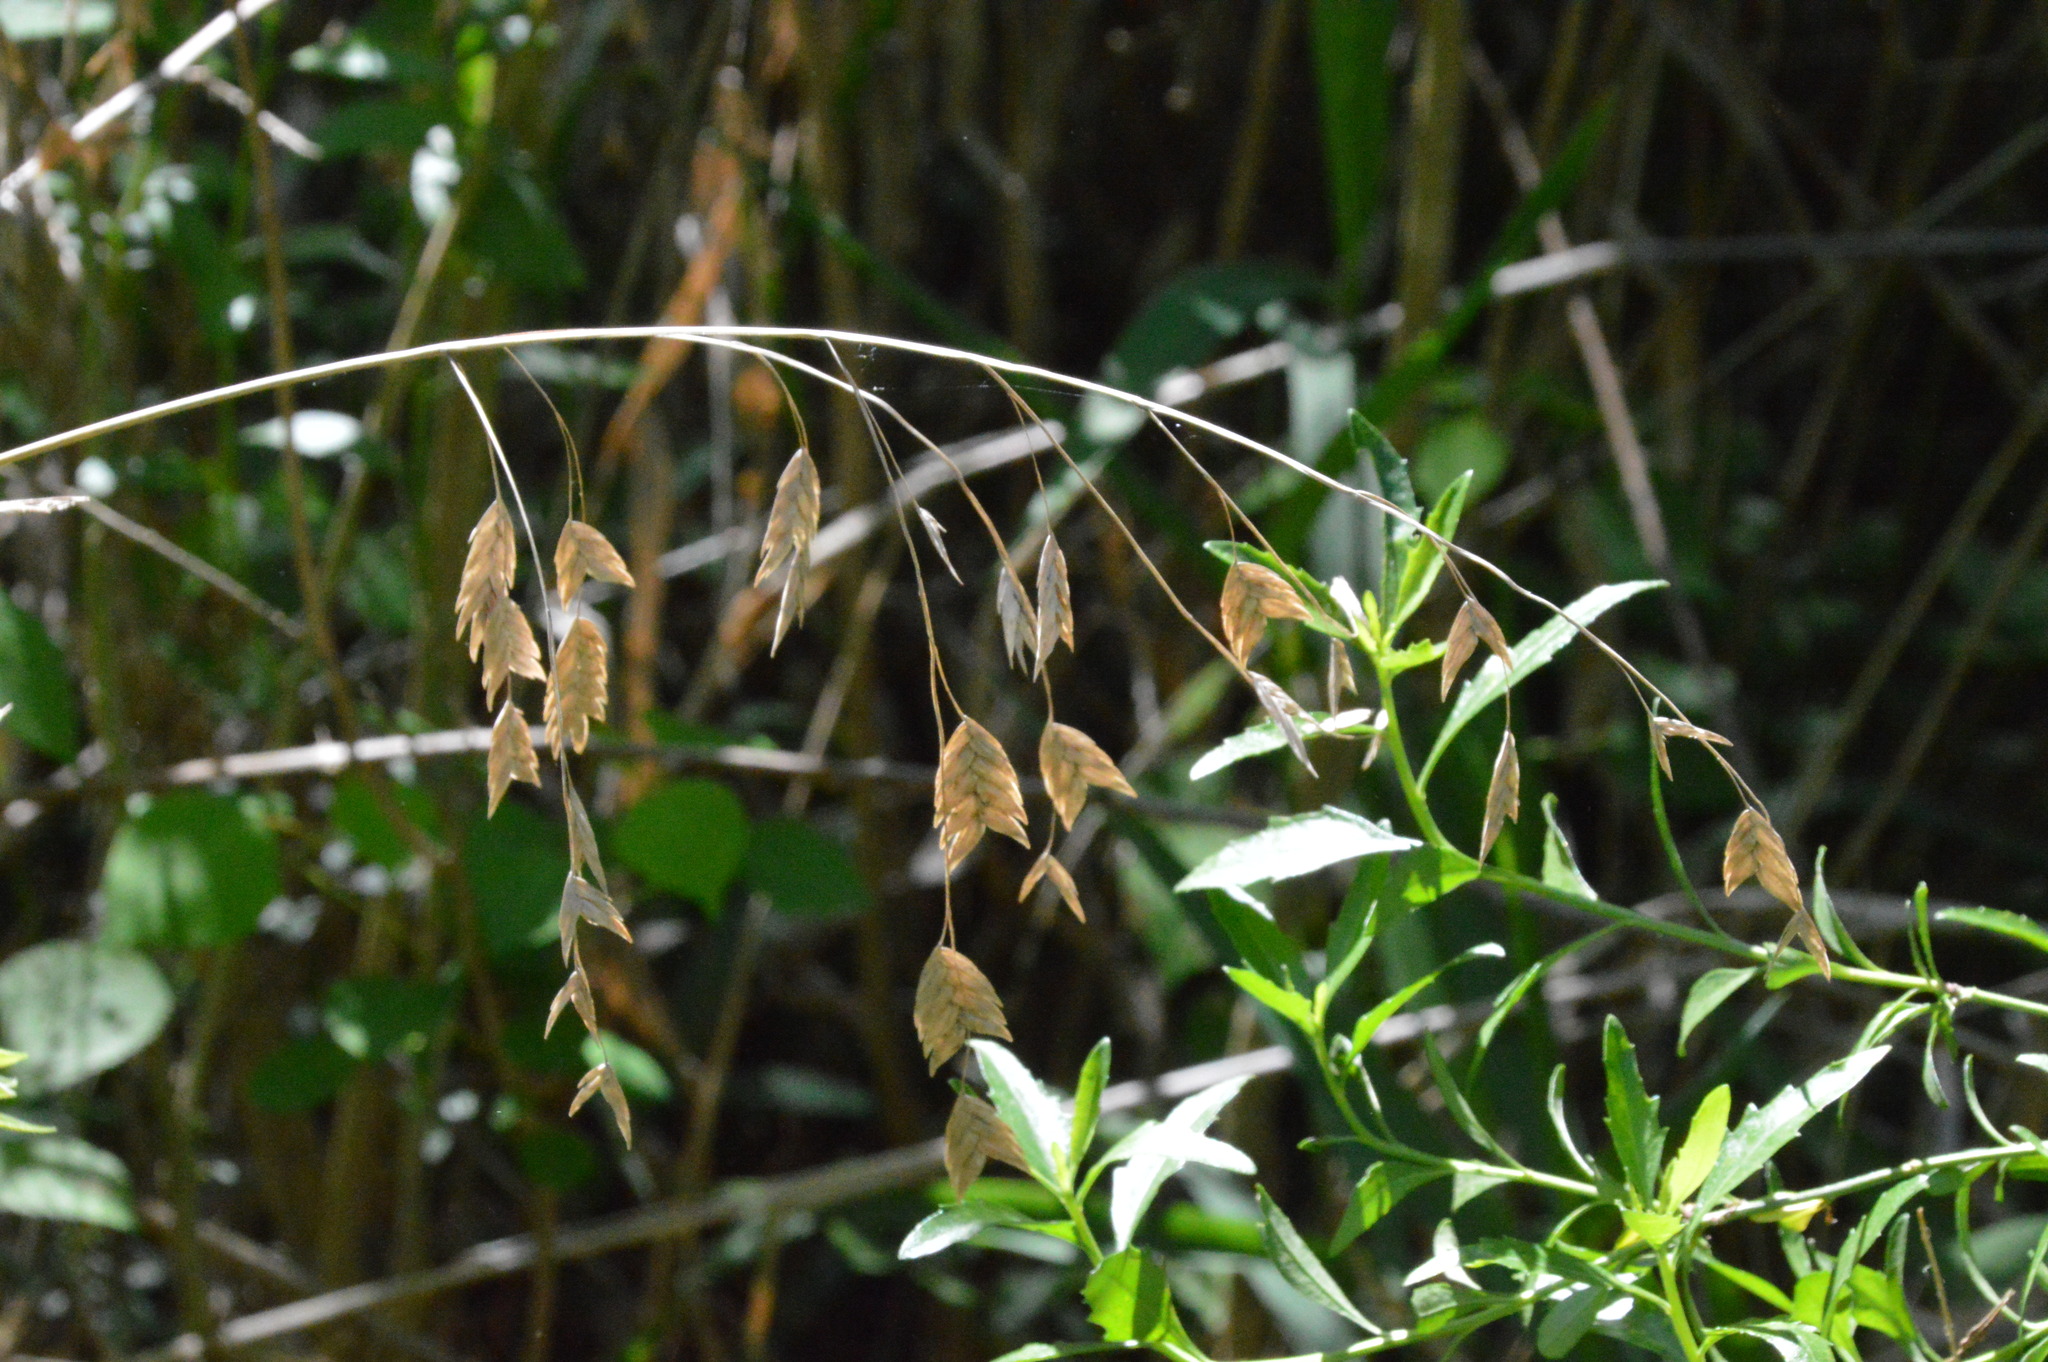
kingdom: Plantae
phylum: Tracheophyta
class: Liliopsida
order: Poales
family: Poaceae
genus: Chasmanthium
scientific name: Chasmanthium latifolium
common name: Broad-leaved chasmanthium
